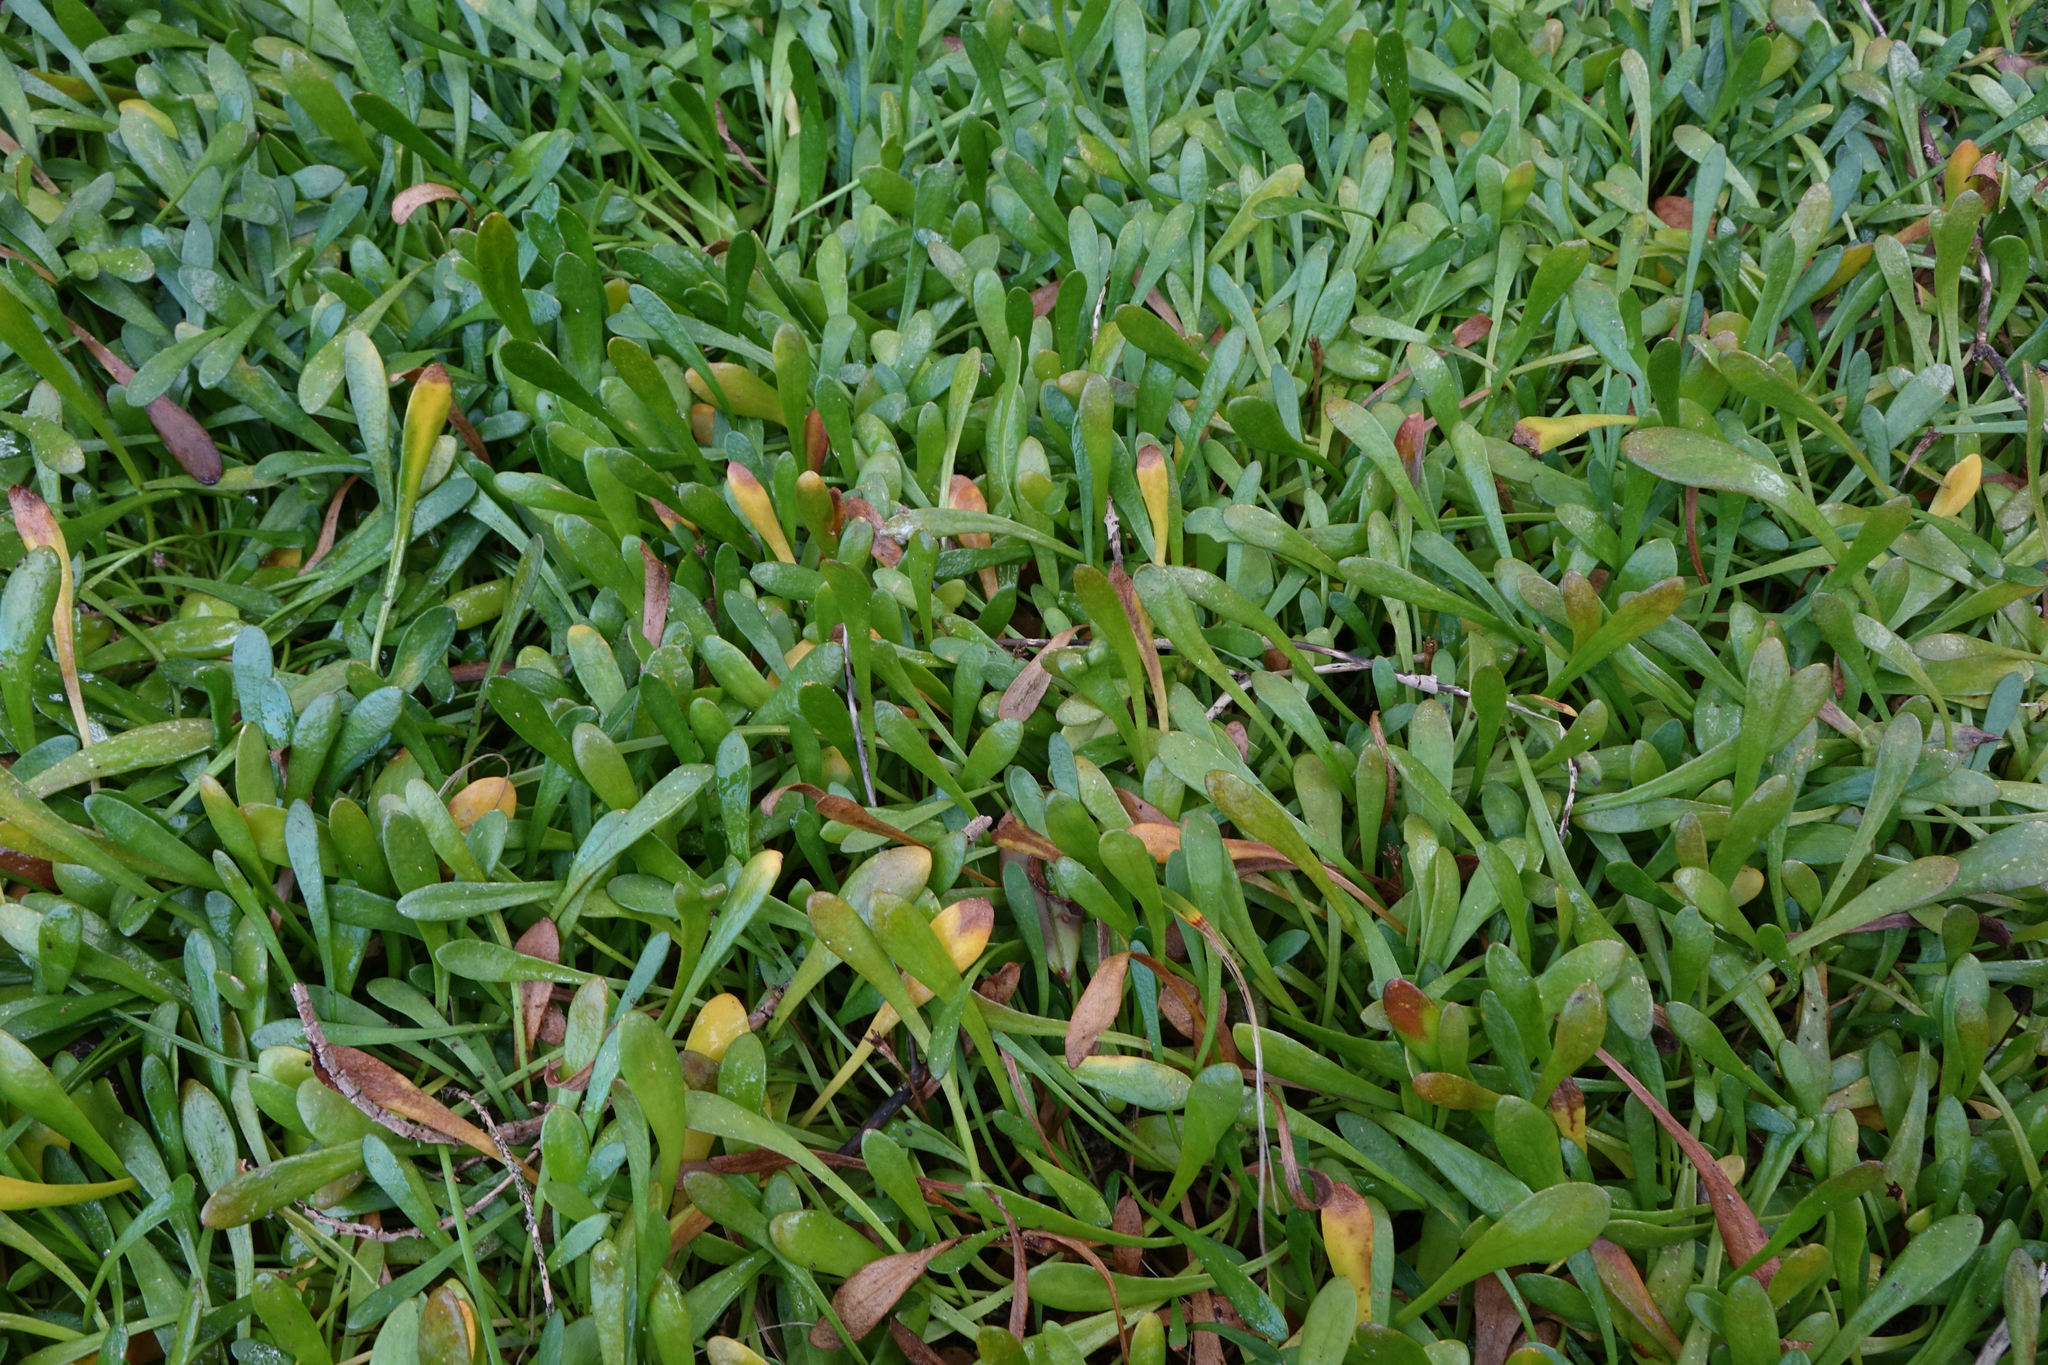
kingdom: Plantae
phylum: Tracheophyta
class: Magnoliopsida
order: Asterales
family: Goodeniaceae
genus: Goodenia
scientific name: Goodenia radicans
